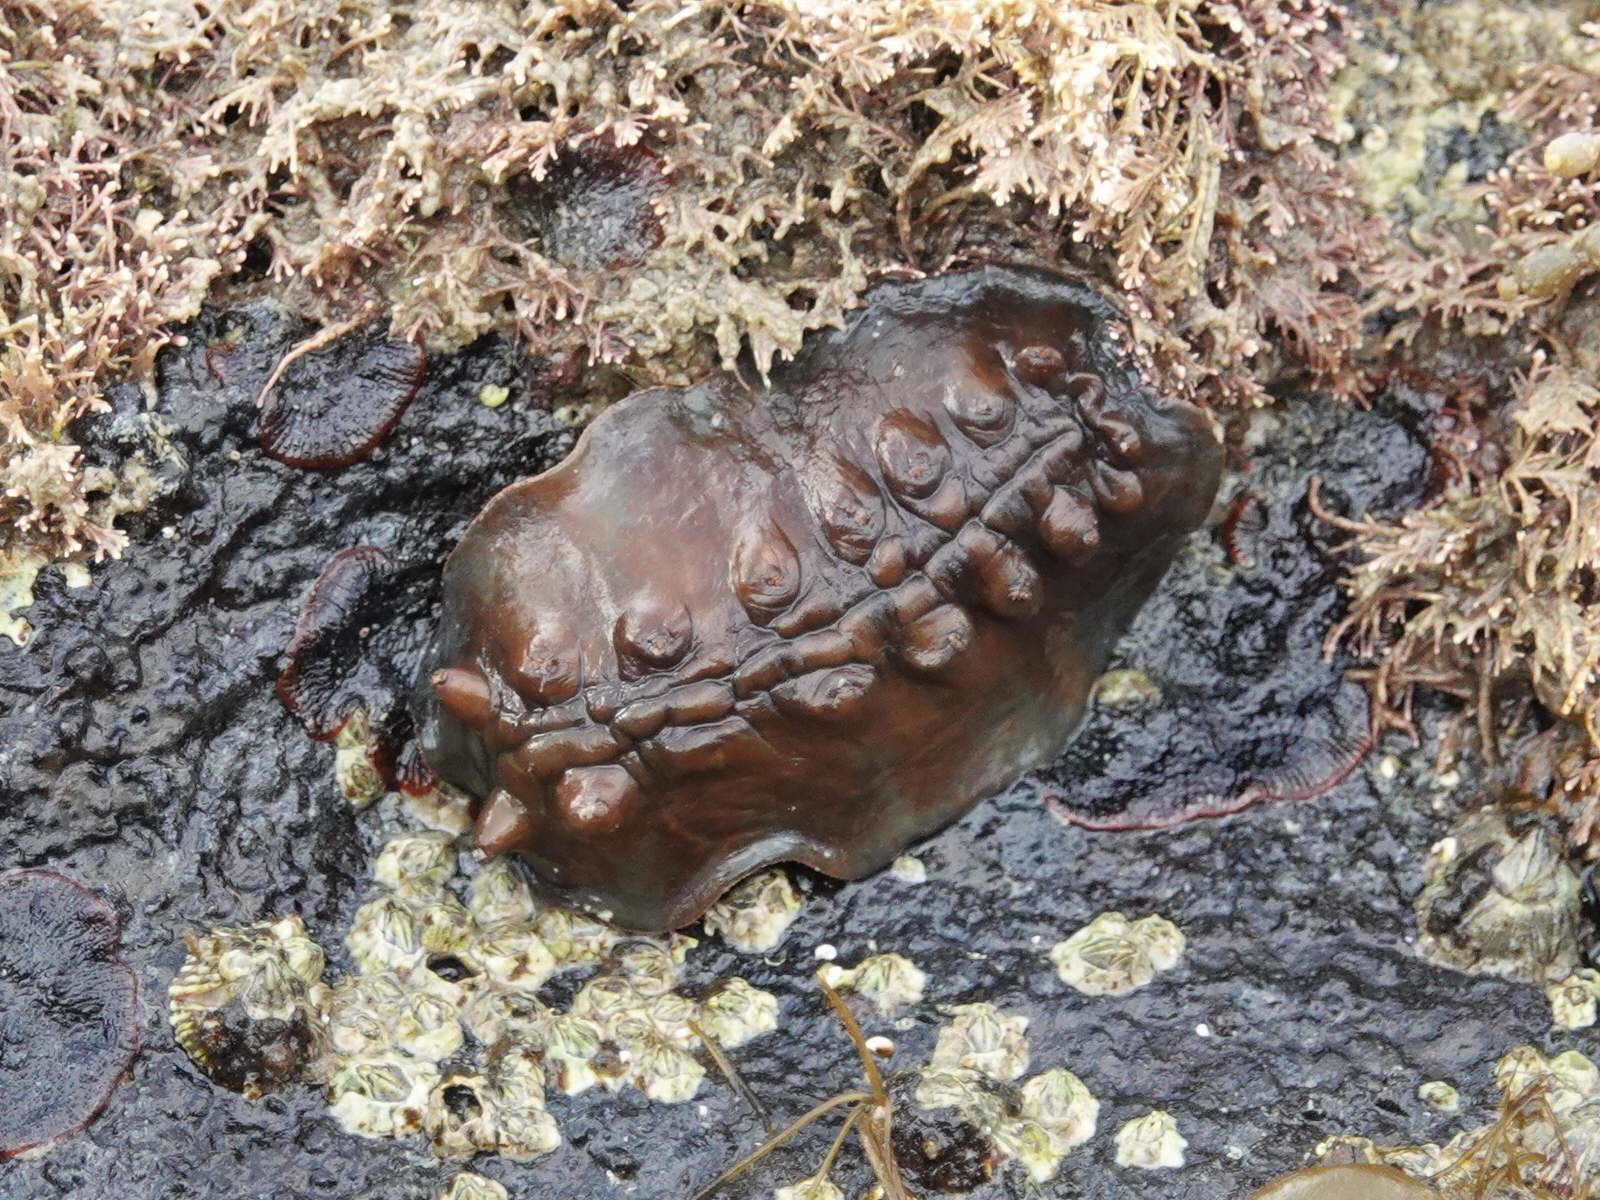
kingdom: Animalia
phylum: Mollusca
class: Polyplacophora
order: Chitonida
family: Acanthochitonidae
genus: Cryptoconchus
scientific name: Cryptoconchus porosus
